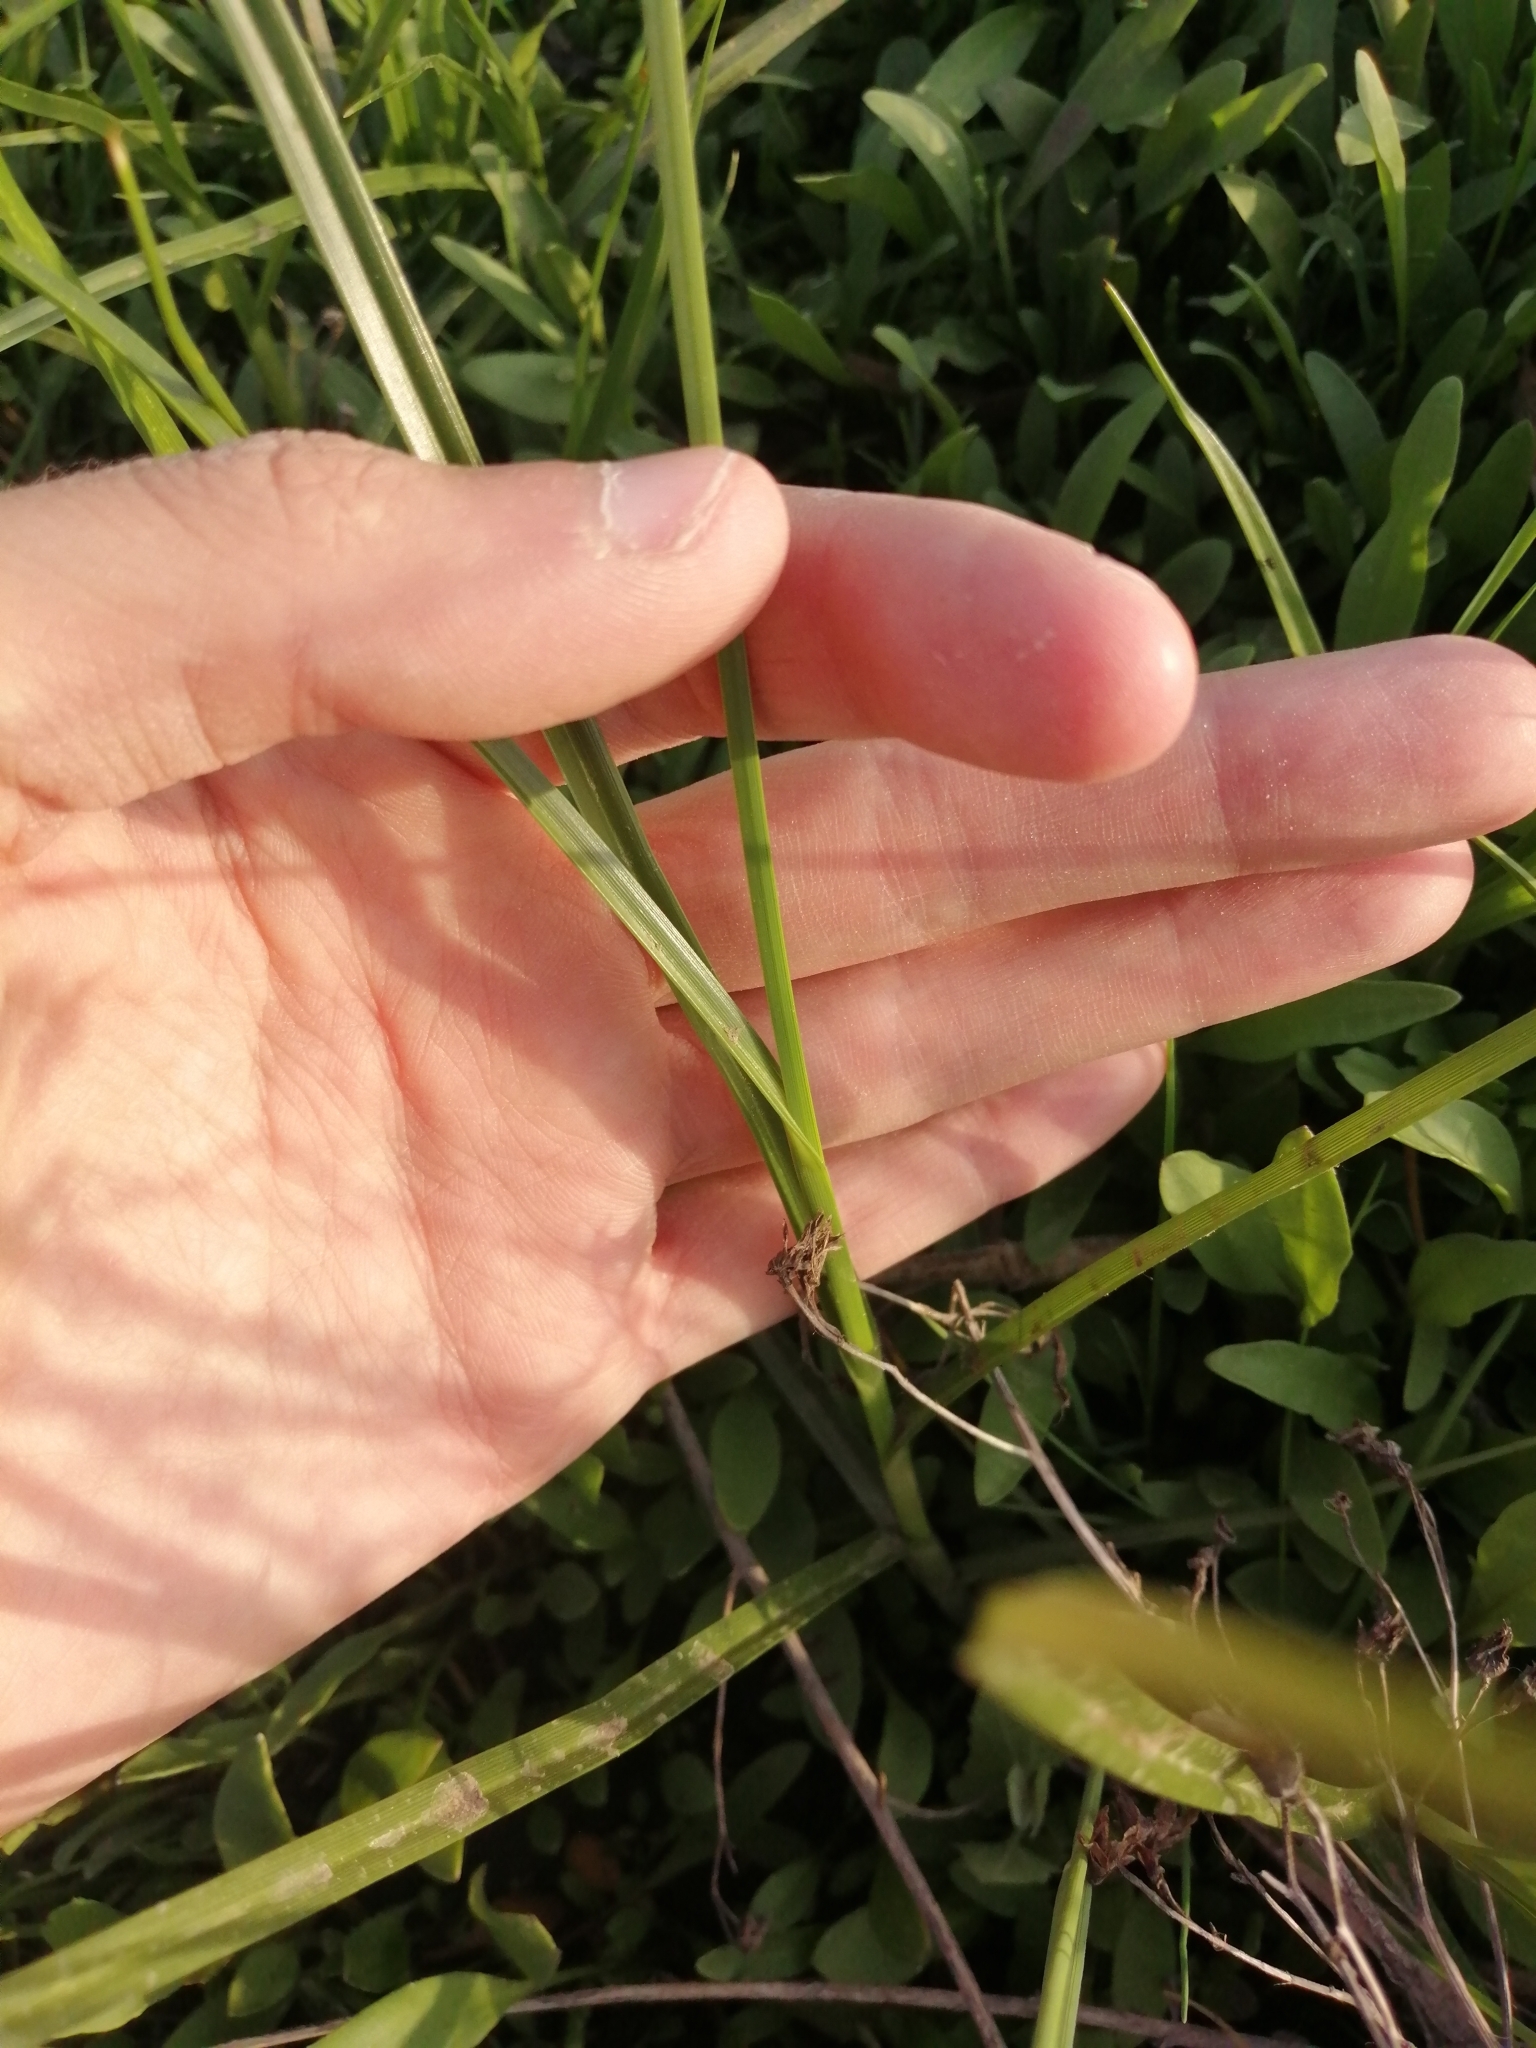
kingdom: Plantae
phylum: Tracheophyta
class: Liliopsida
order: Poales
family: Cyperaceae
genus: Bolboschoenus
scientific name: Bolboschoenus maritimus
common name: Sea club-rush
